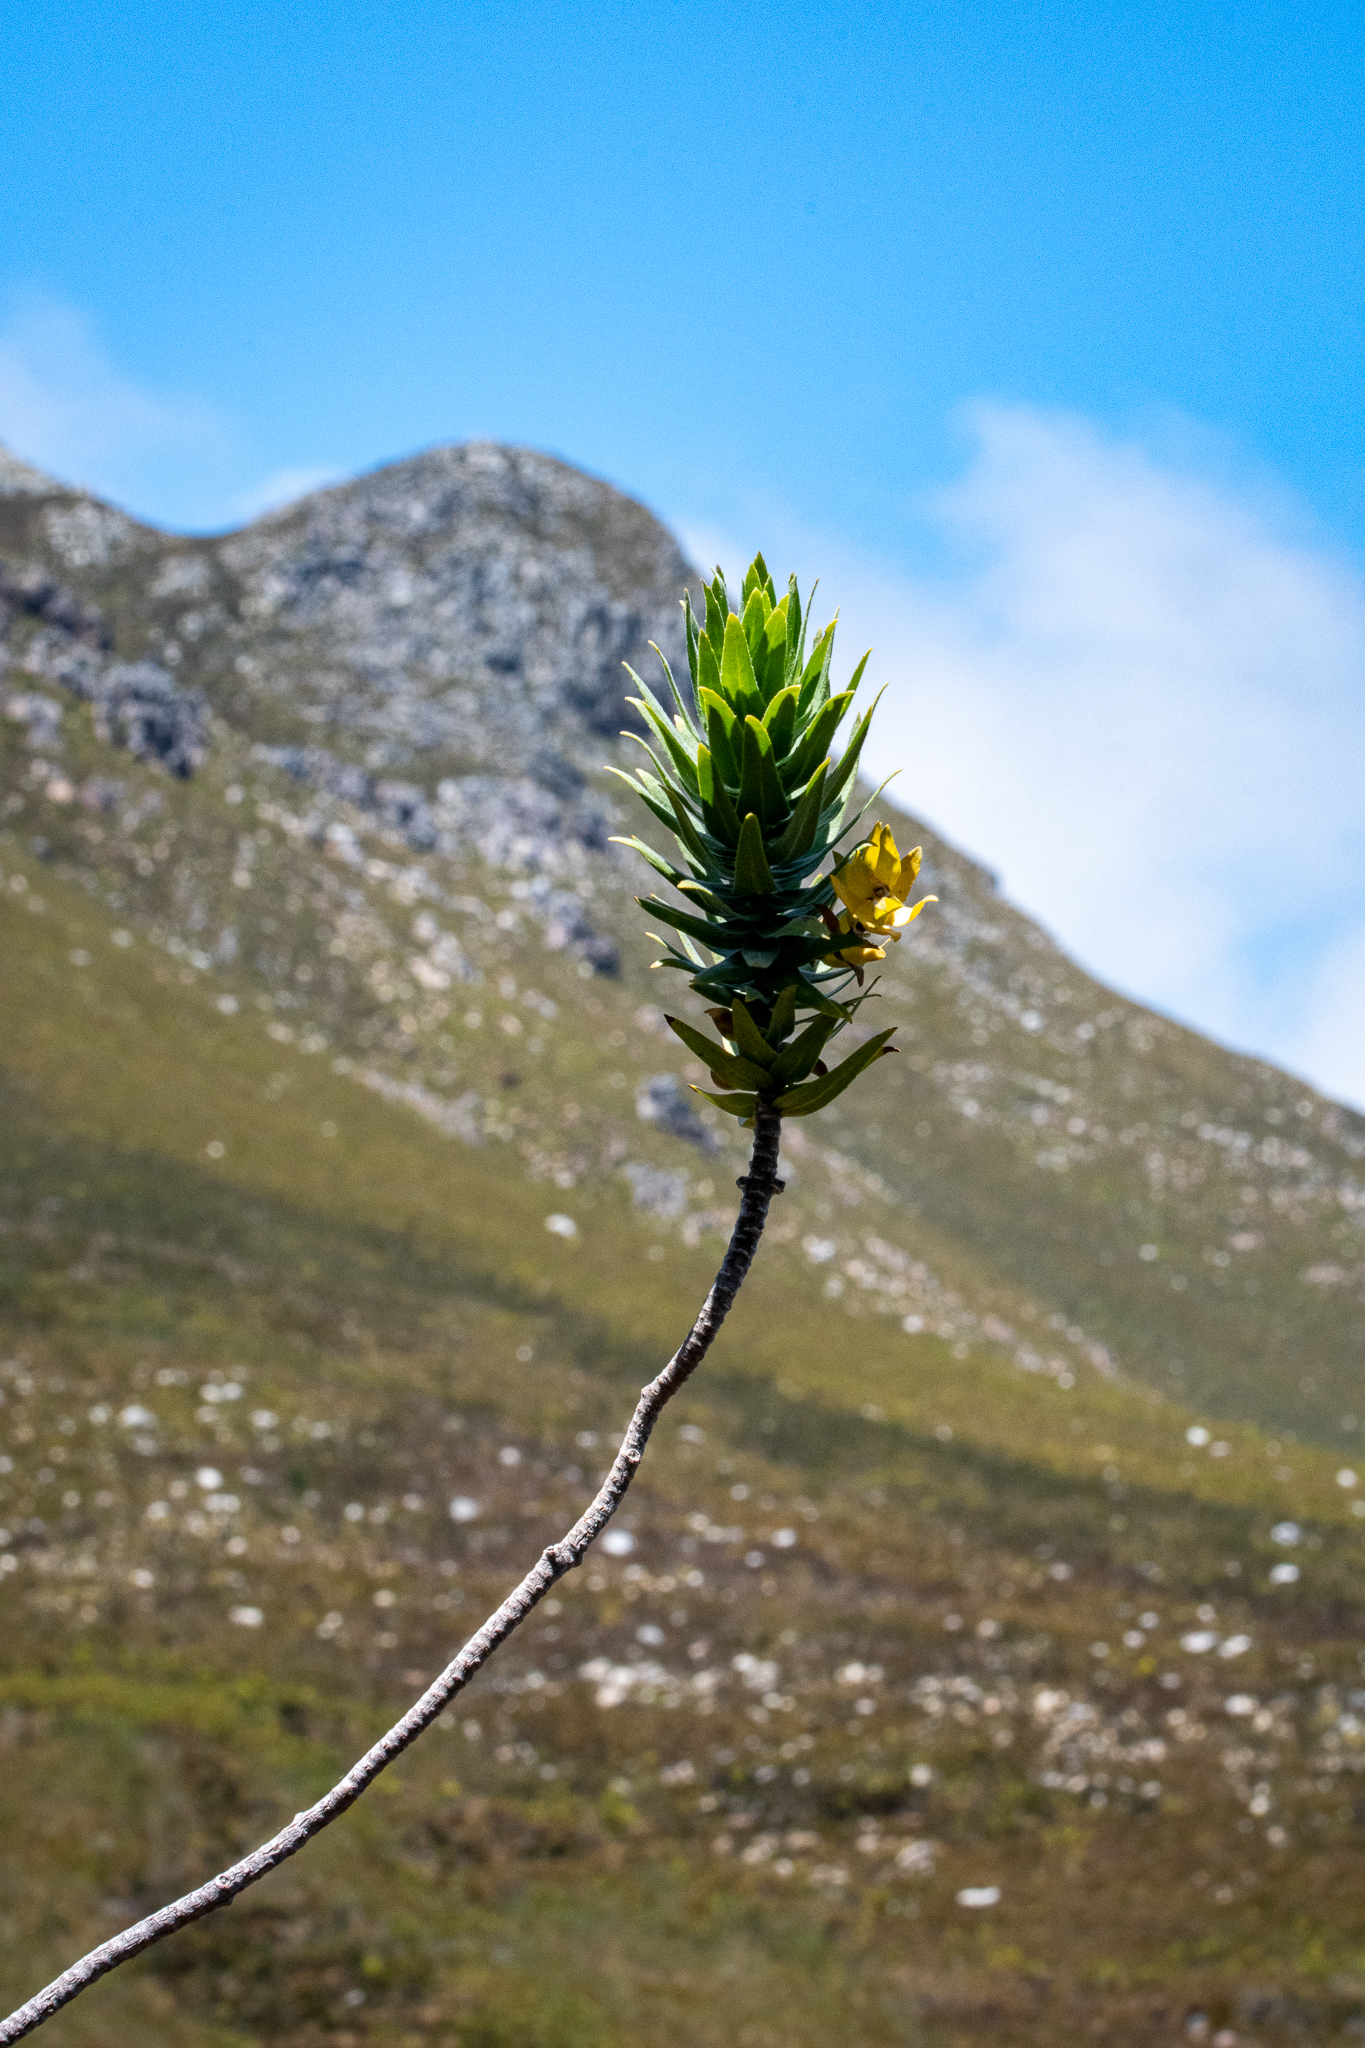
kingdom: Plantae
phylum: Tracheophyta
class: Magnoliopsida
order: Asterales
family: Asteraceae
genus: Osmitopsis
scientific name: Osmitopsis asteriscoides
